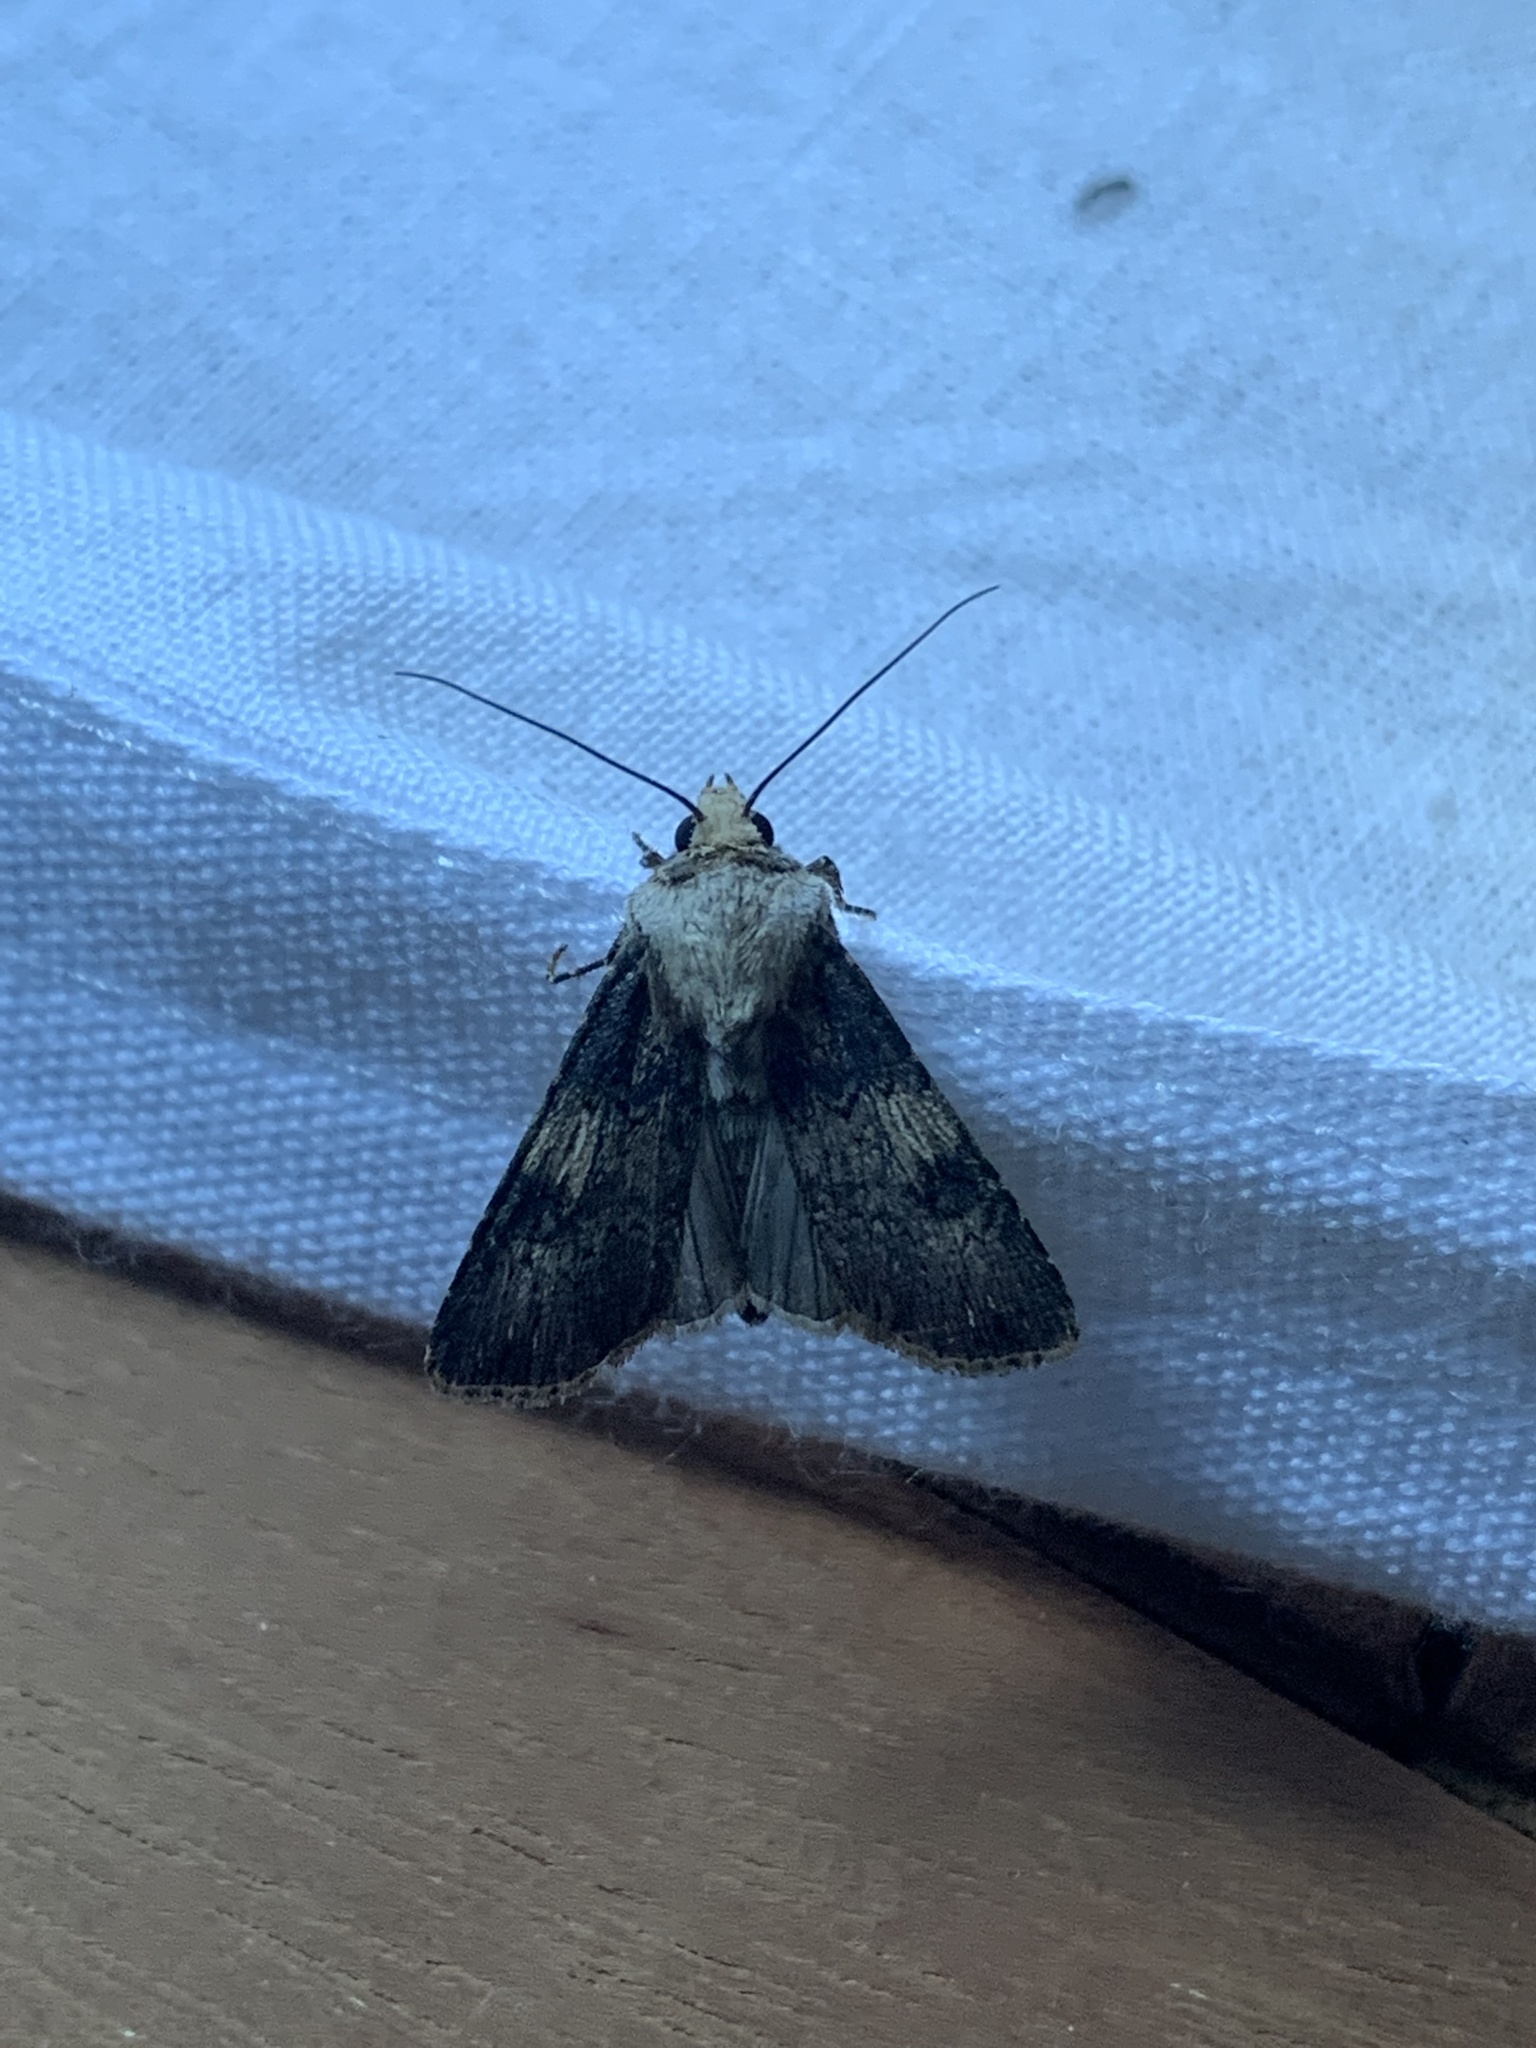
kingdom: Animalia
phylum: Arthropoda
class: Insecta
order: Lepidoptera
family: Noctuidae
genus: Agrotis
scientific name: Agrotis puta
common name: Shuttle-shaped dart
